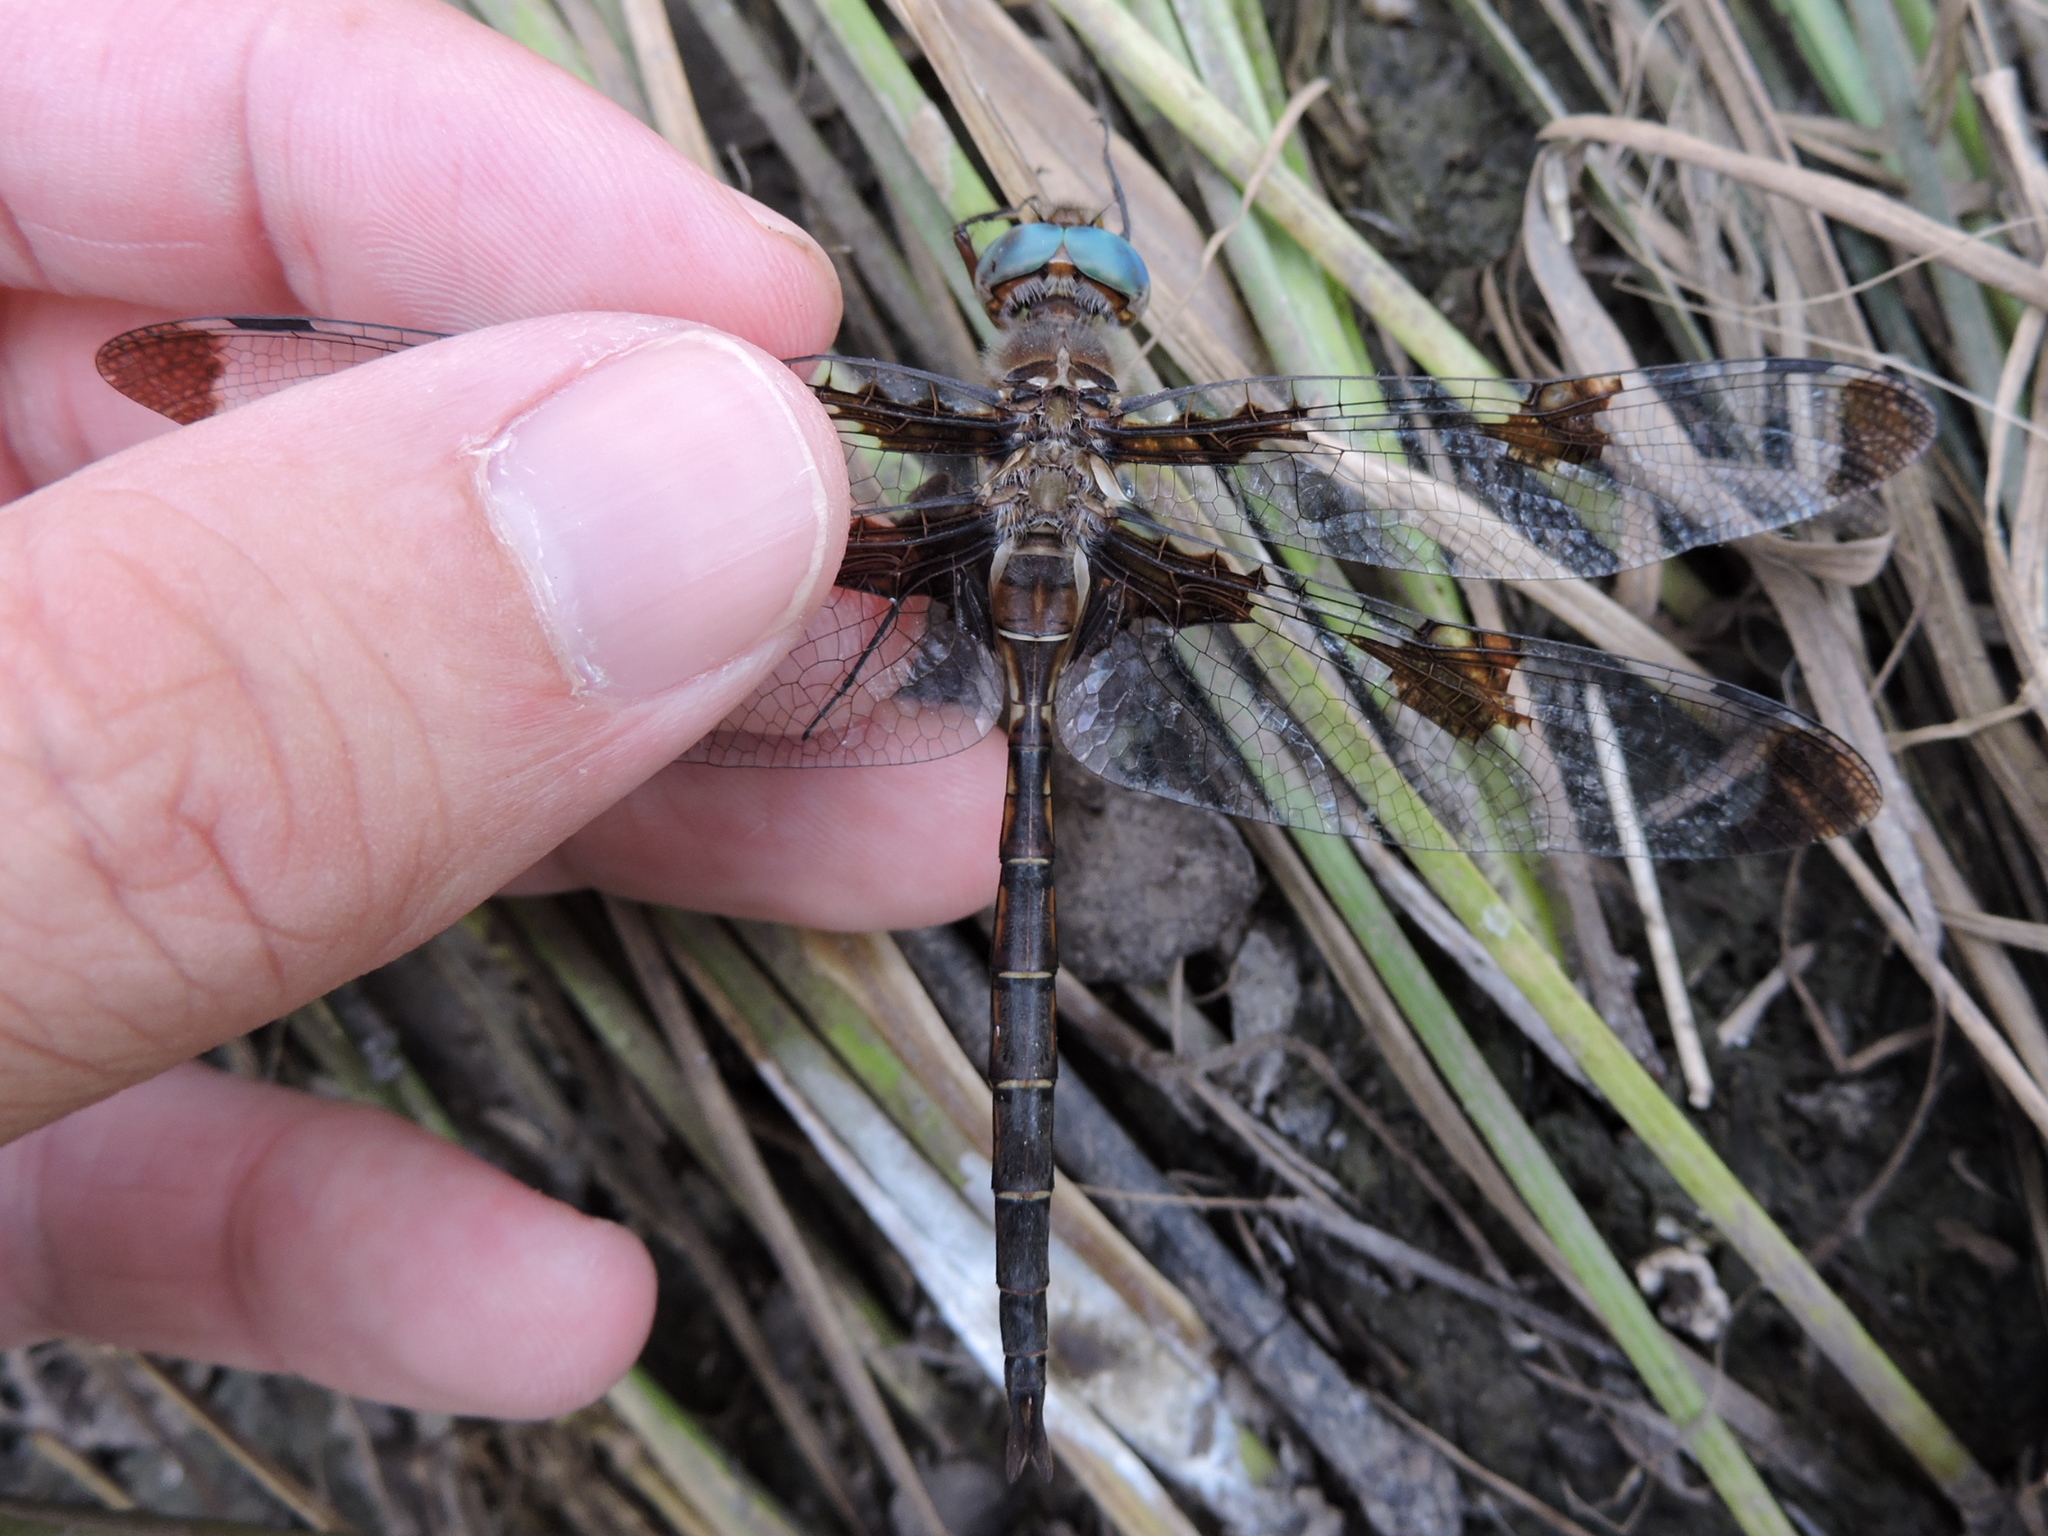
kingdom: Animalia
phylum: Arthropoda
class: Insecta
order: Odonata
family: Corduliidae
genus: Epitheca
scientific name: Epitheca princeps
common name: Prince baskettail
